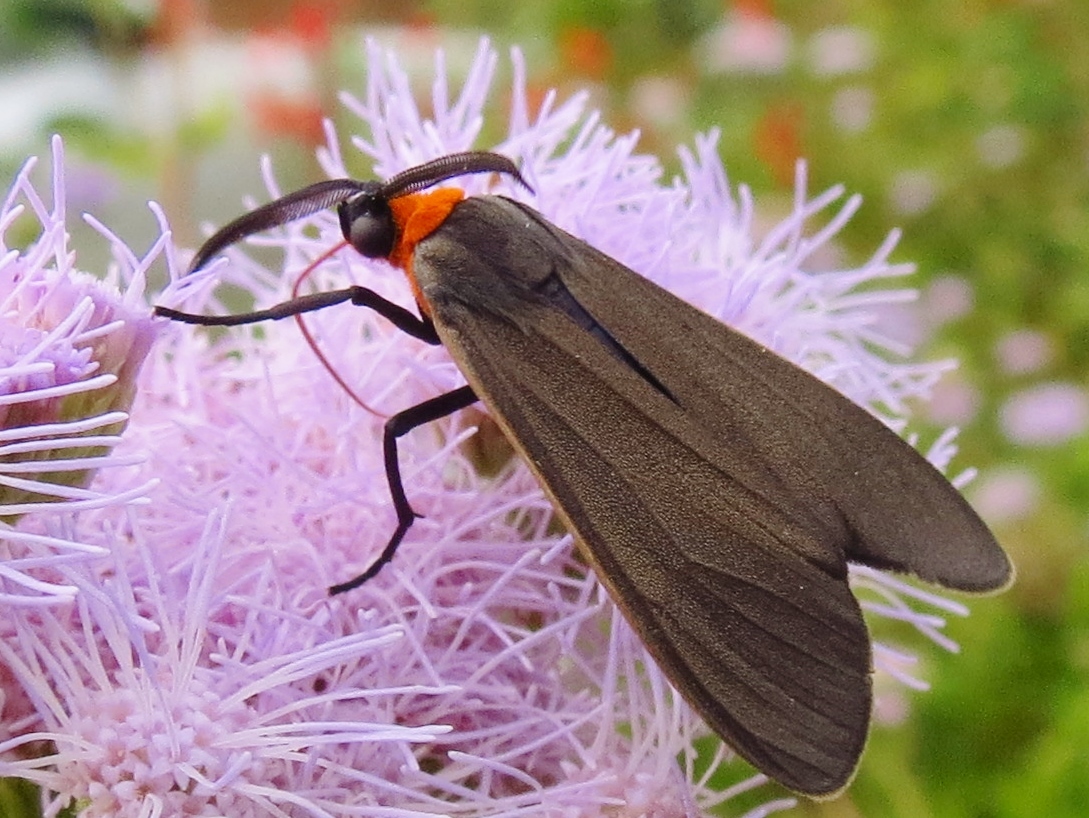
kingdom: Animalia
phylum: Arthropoda
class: Insecta
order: Lepidoptera
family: Erebidae
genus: Cisseps
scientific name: Cisseps fulvicollis
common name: Yellow-collared scape moth
